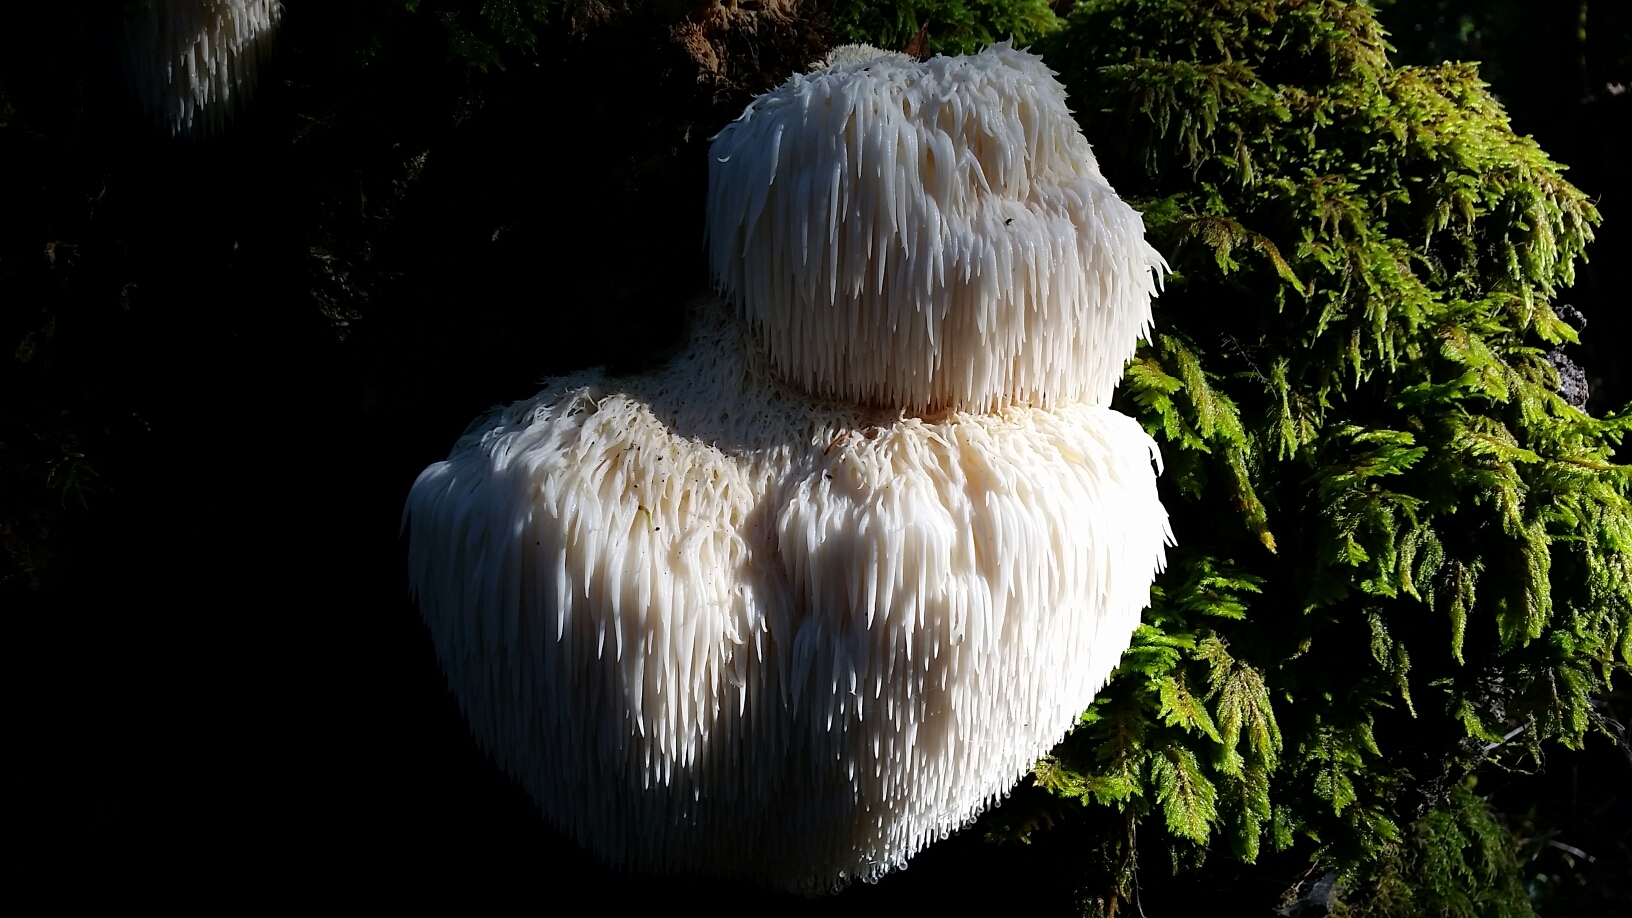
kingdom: Fungi
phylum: Basidiomycota
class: Agaricomycetes
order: Russulales
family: Hericiaceae
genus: Hericium
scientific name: Hericium erinaceus
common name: Bearded tooth
